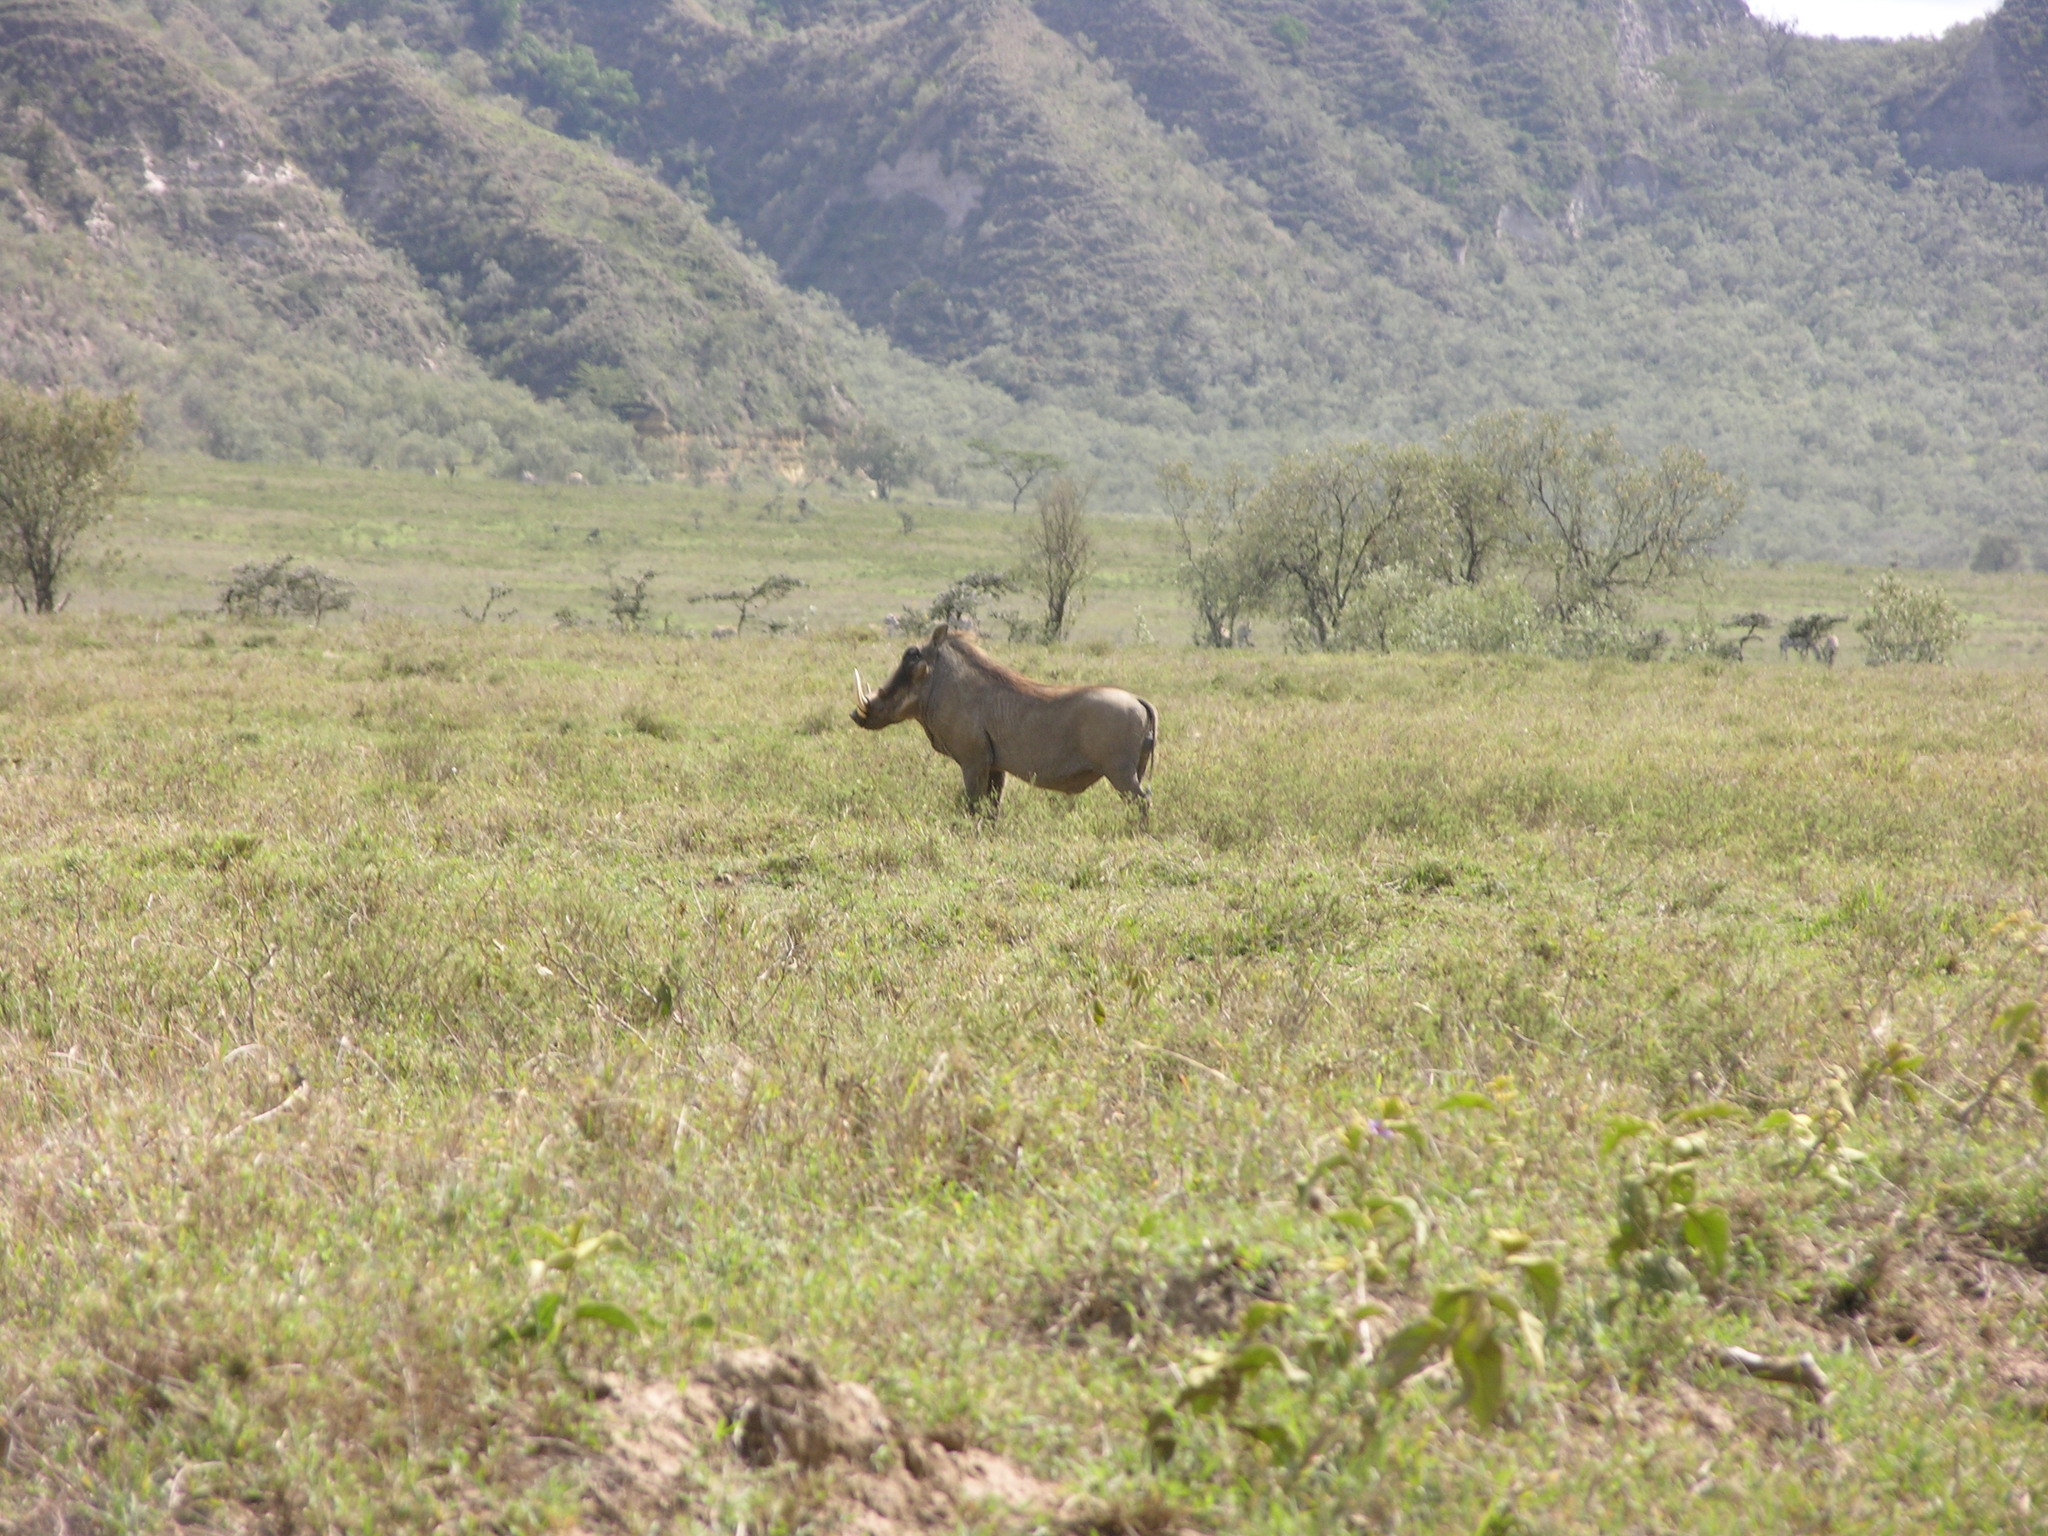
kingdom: Animalia
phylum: Chordata
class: Mammalia
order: Artiodactyla
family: Suidae
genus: Phacochoerus
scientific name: Phacochoerus africanus
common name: Common warthog
